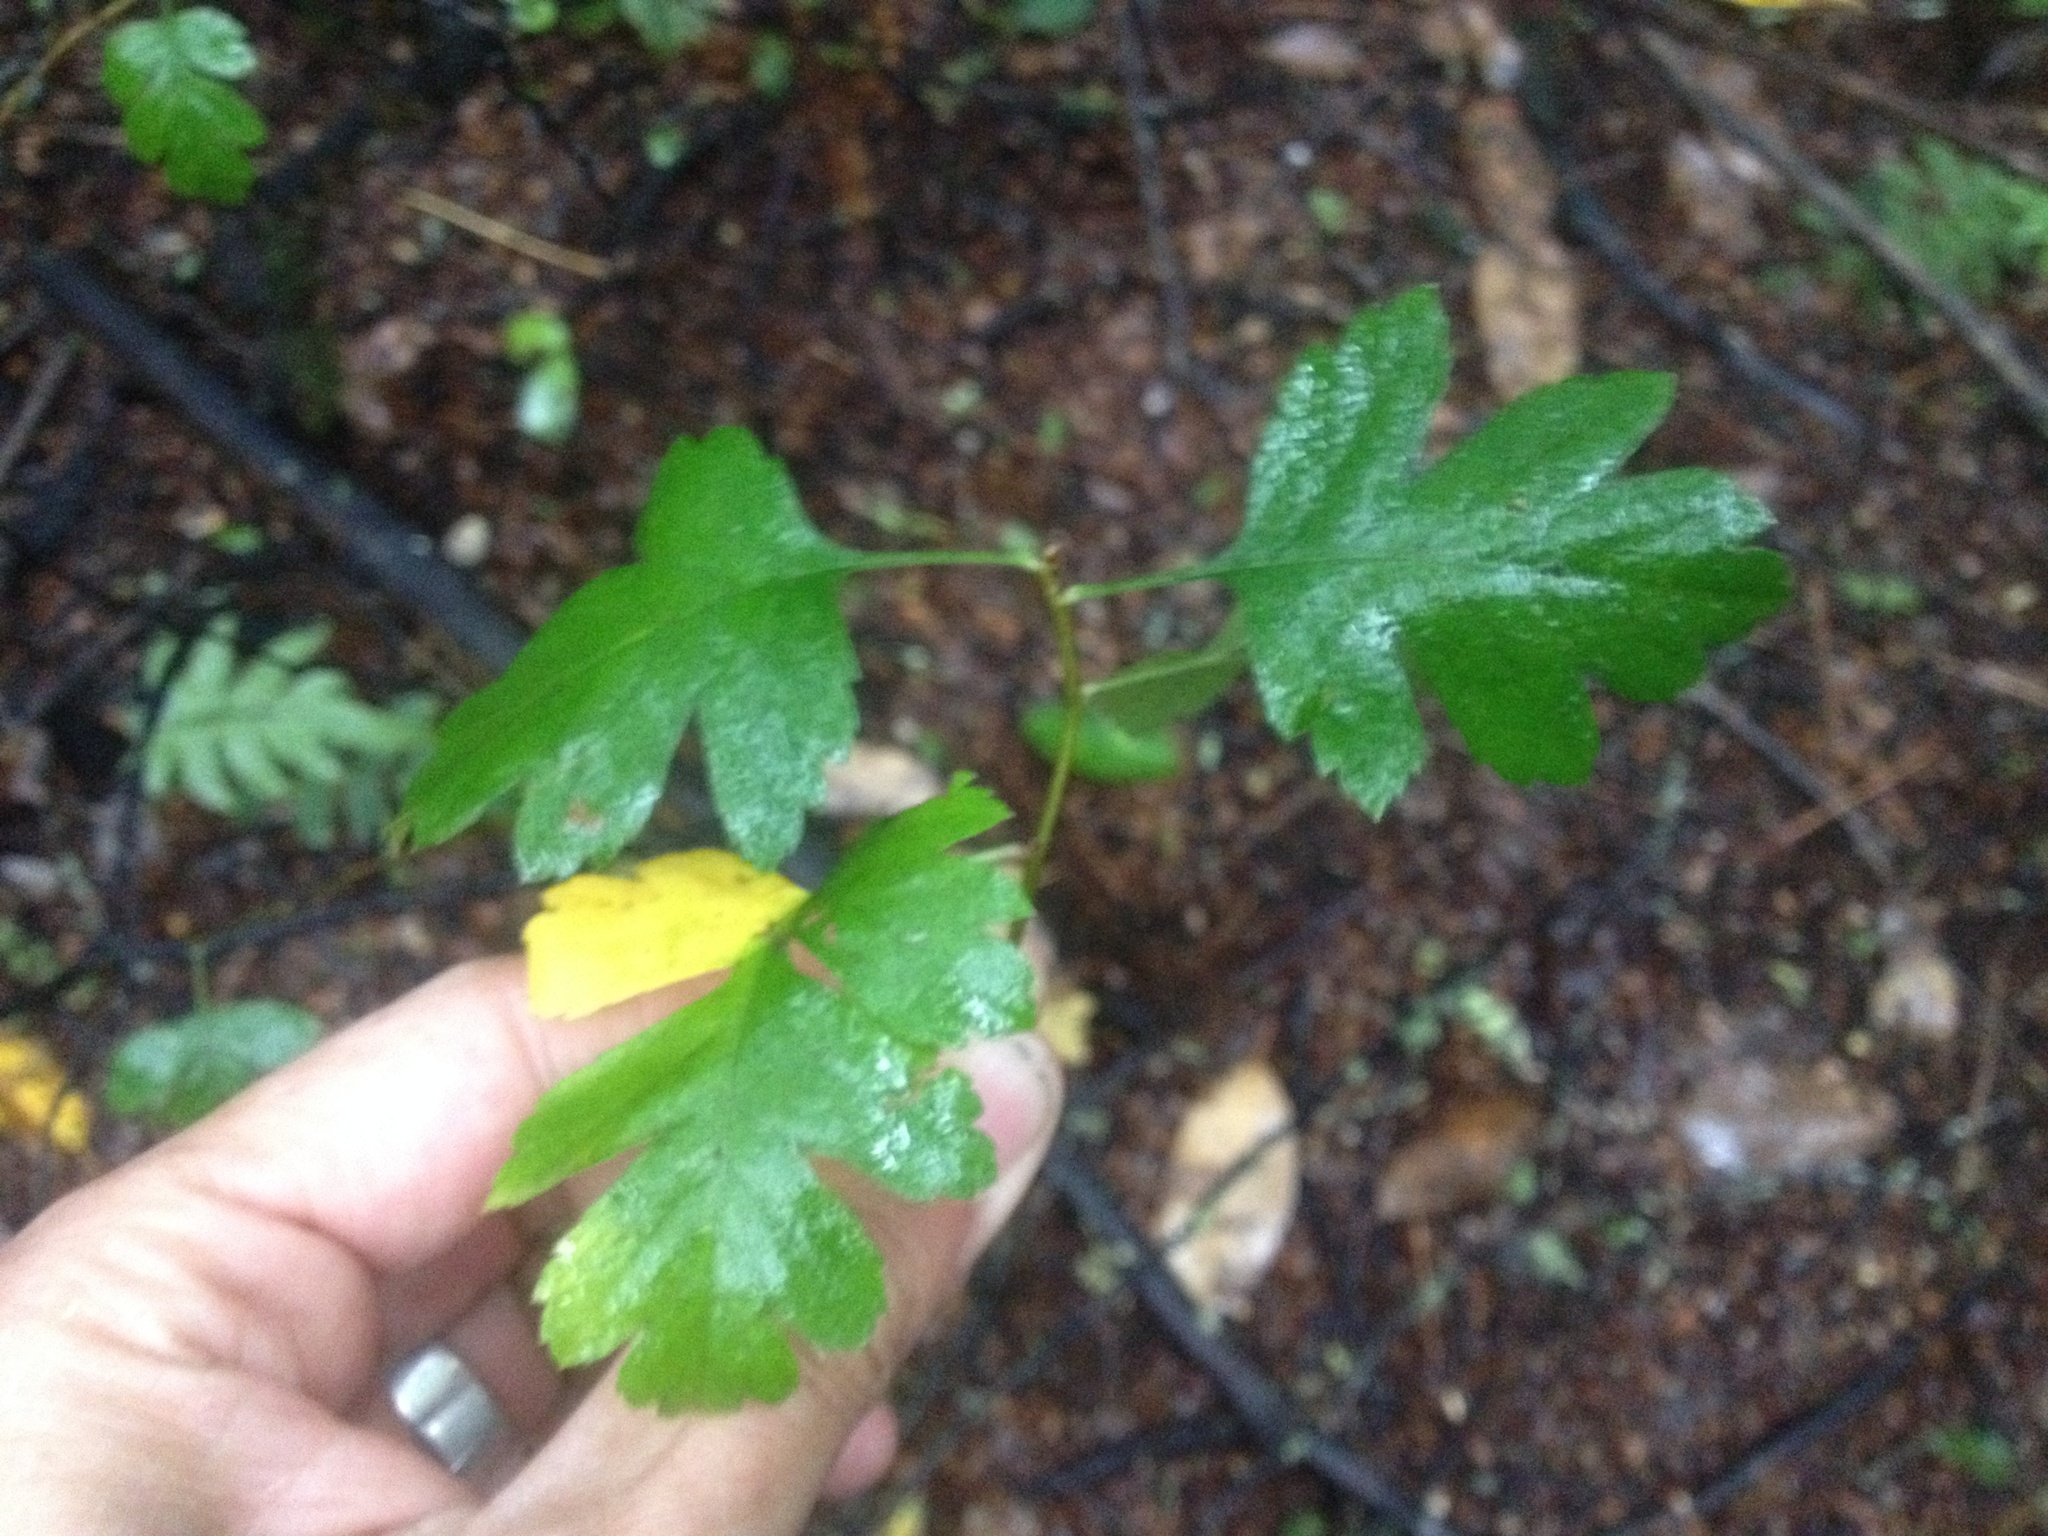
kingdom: Plantae
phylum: Tracheophyta
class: Magnoliopsida
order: Rosales
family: Rosaceae
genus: Crataegus
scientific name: Crataegus monogyna
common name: Hawthorn
